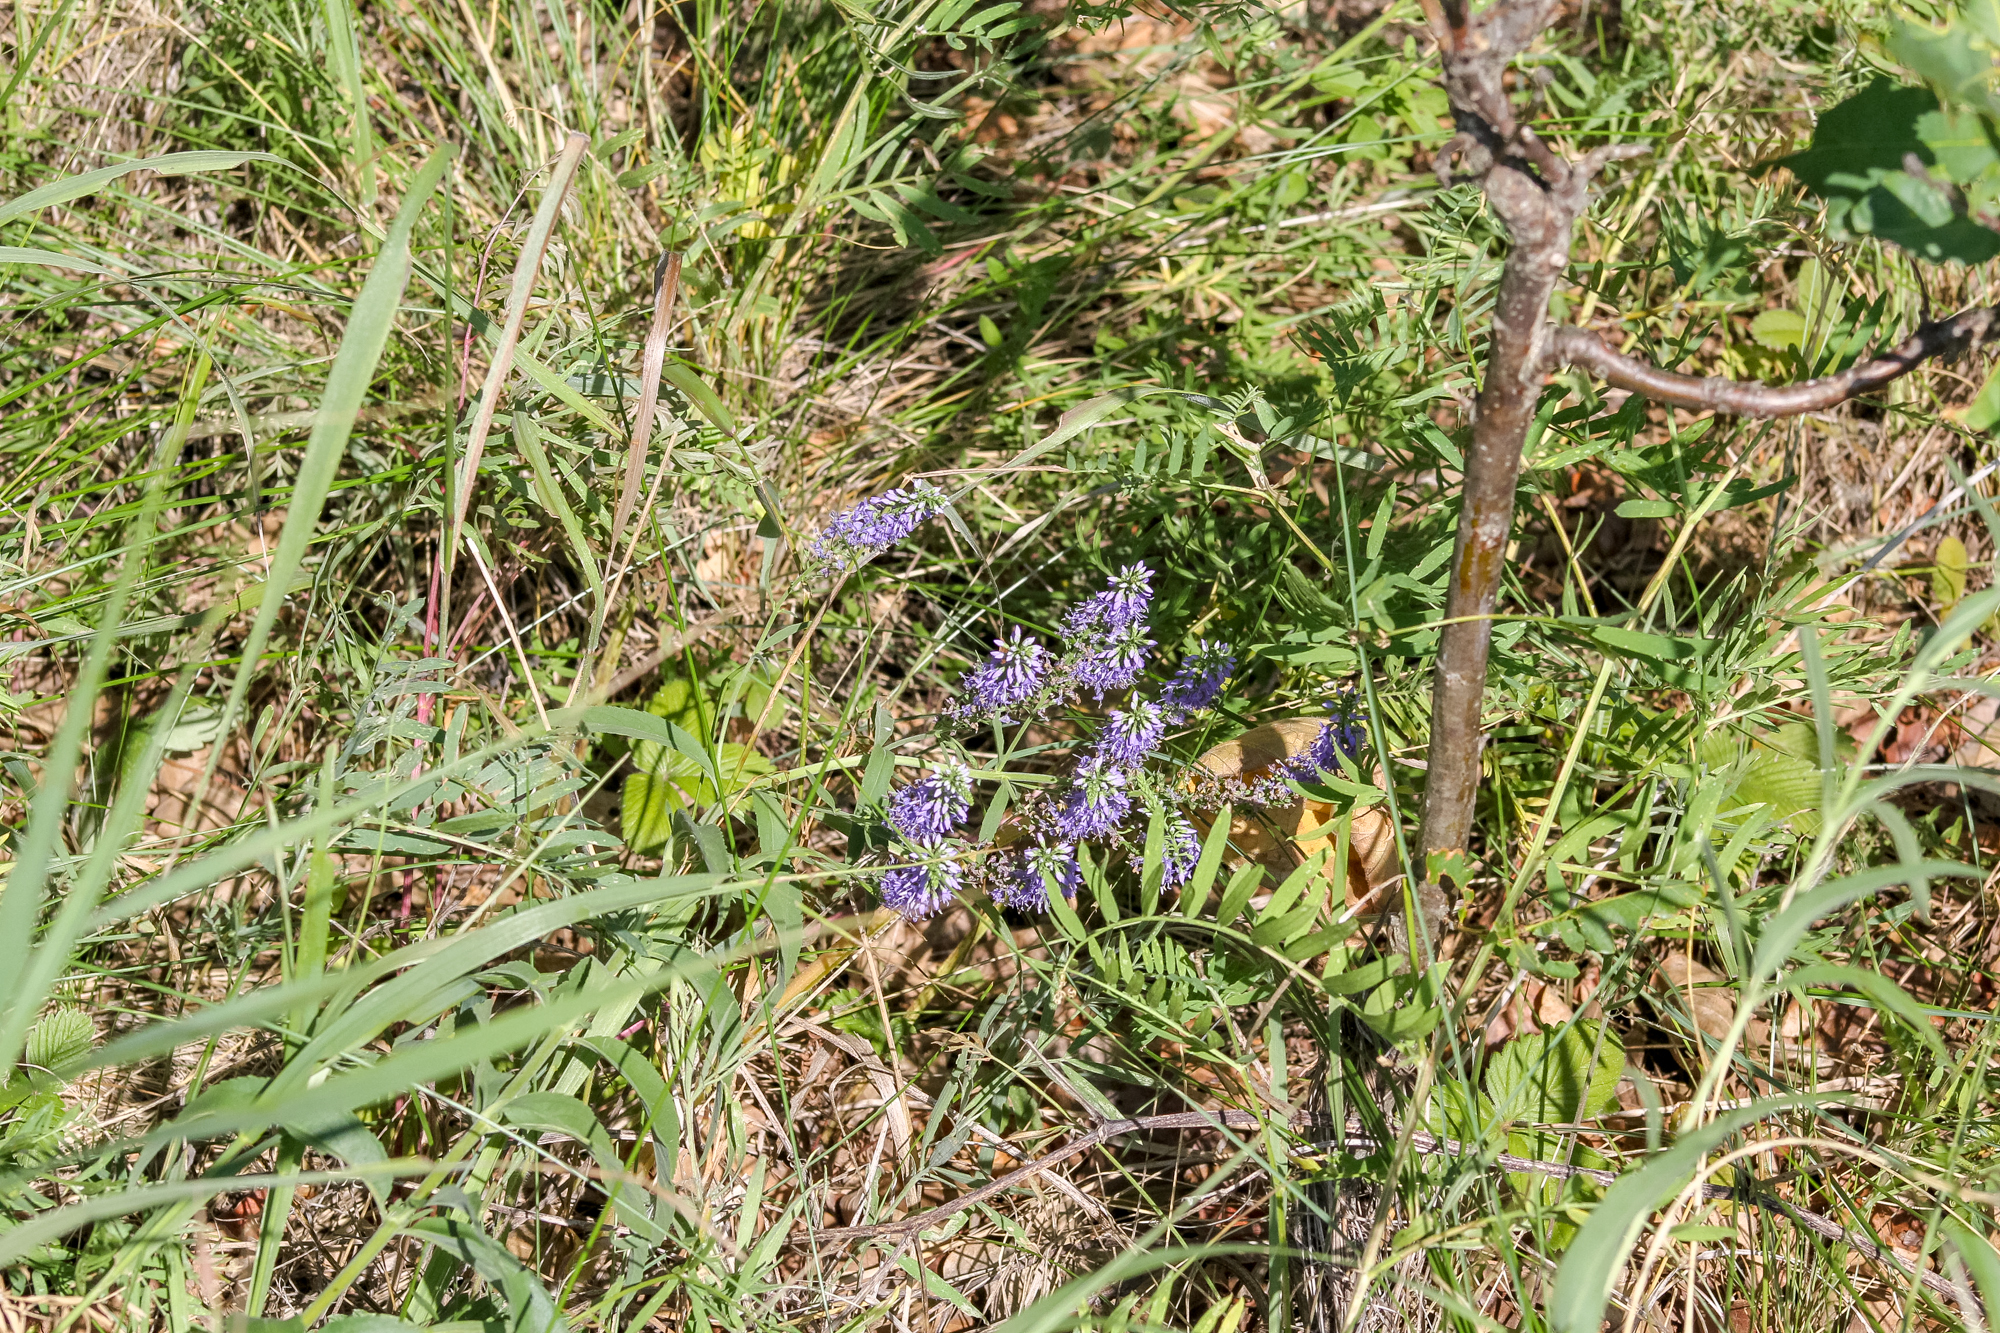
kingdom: Plantae
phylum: Tracheophyta
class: Magnoliopsida
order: Lamiales
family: Plantaginaceae
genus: Veronica
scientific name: Veronica spuria
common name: Bastard speedwell
